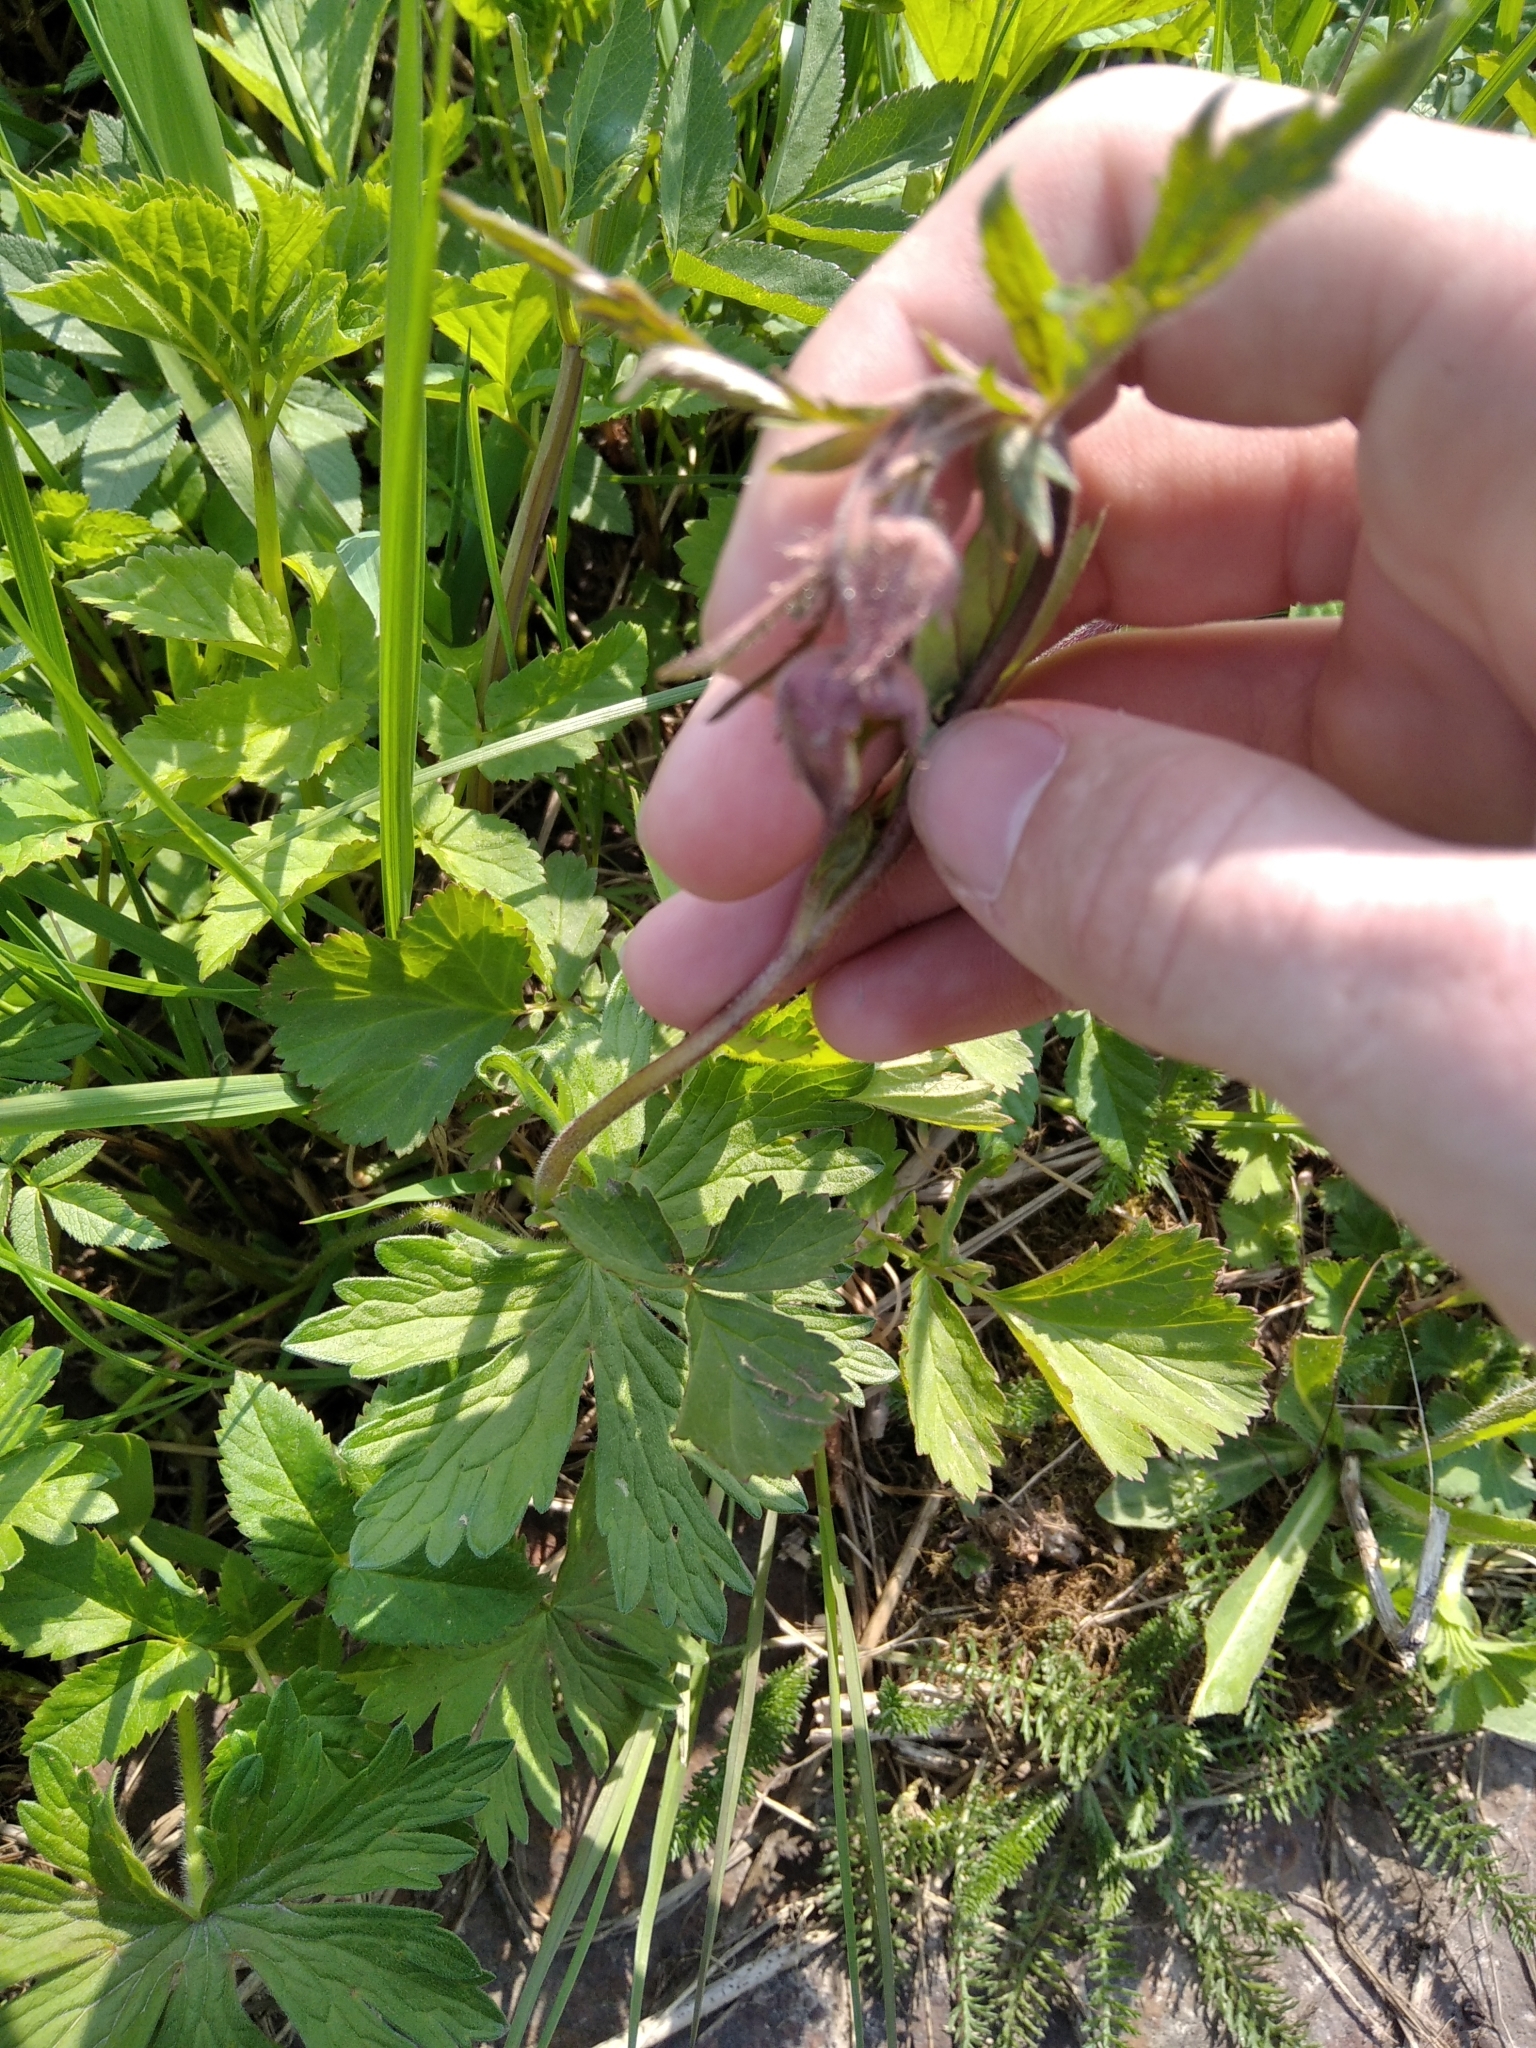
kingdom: Plantae
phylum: Tracheophyta
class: Magnoliopsida
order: Rosales
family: Rosaceae
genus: Geum
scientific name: Geum rivale
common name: Water avens
